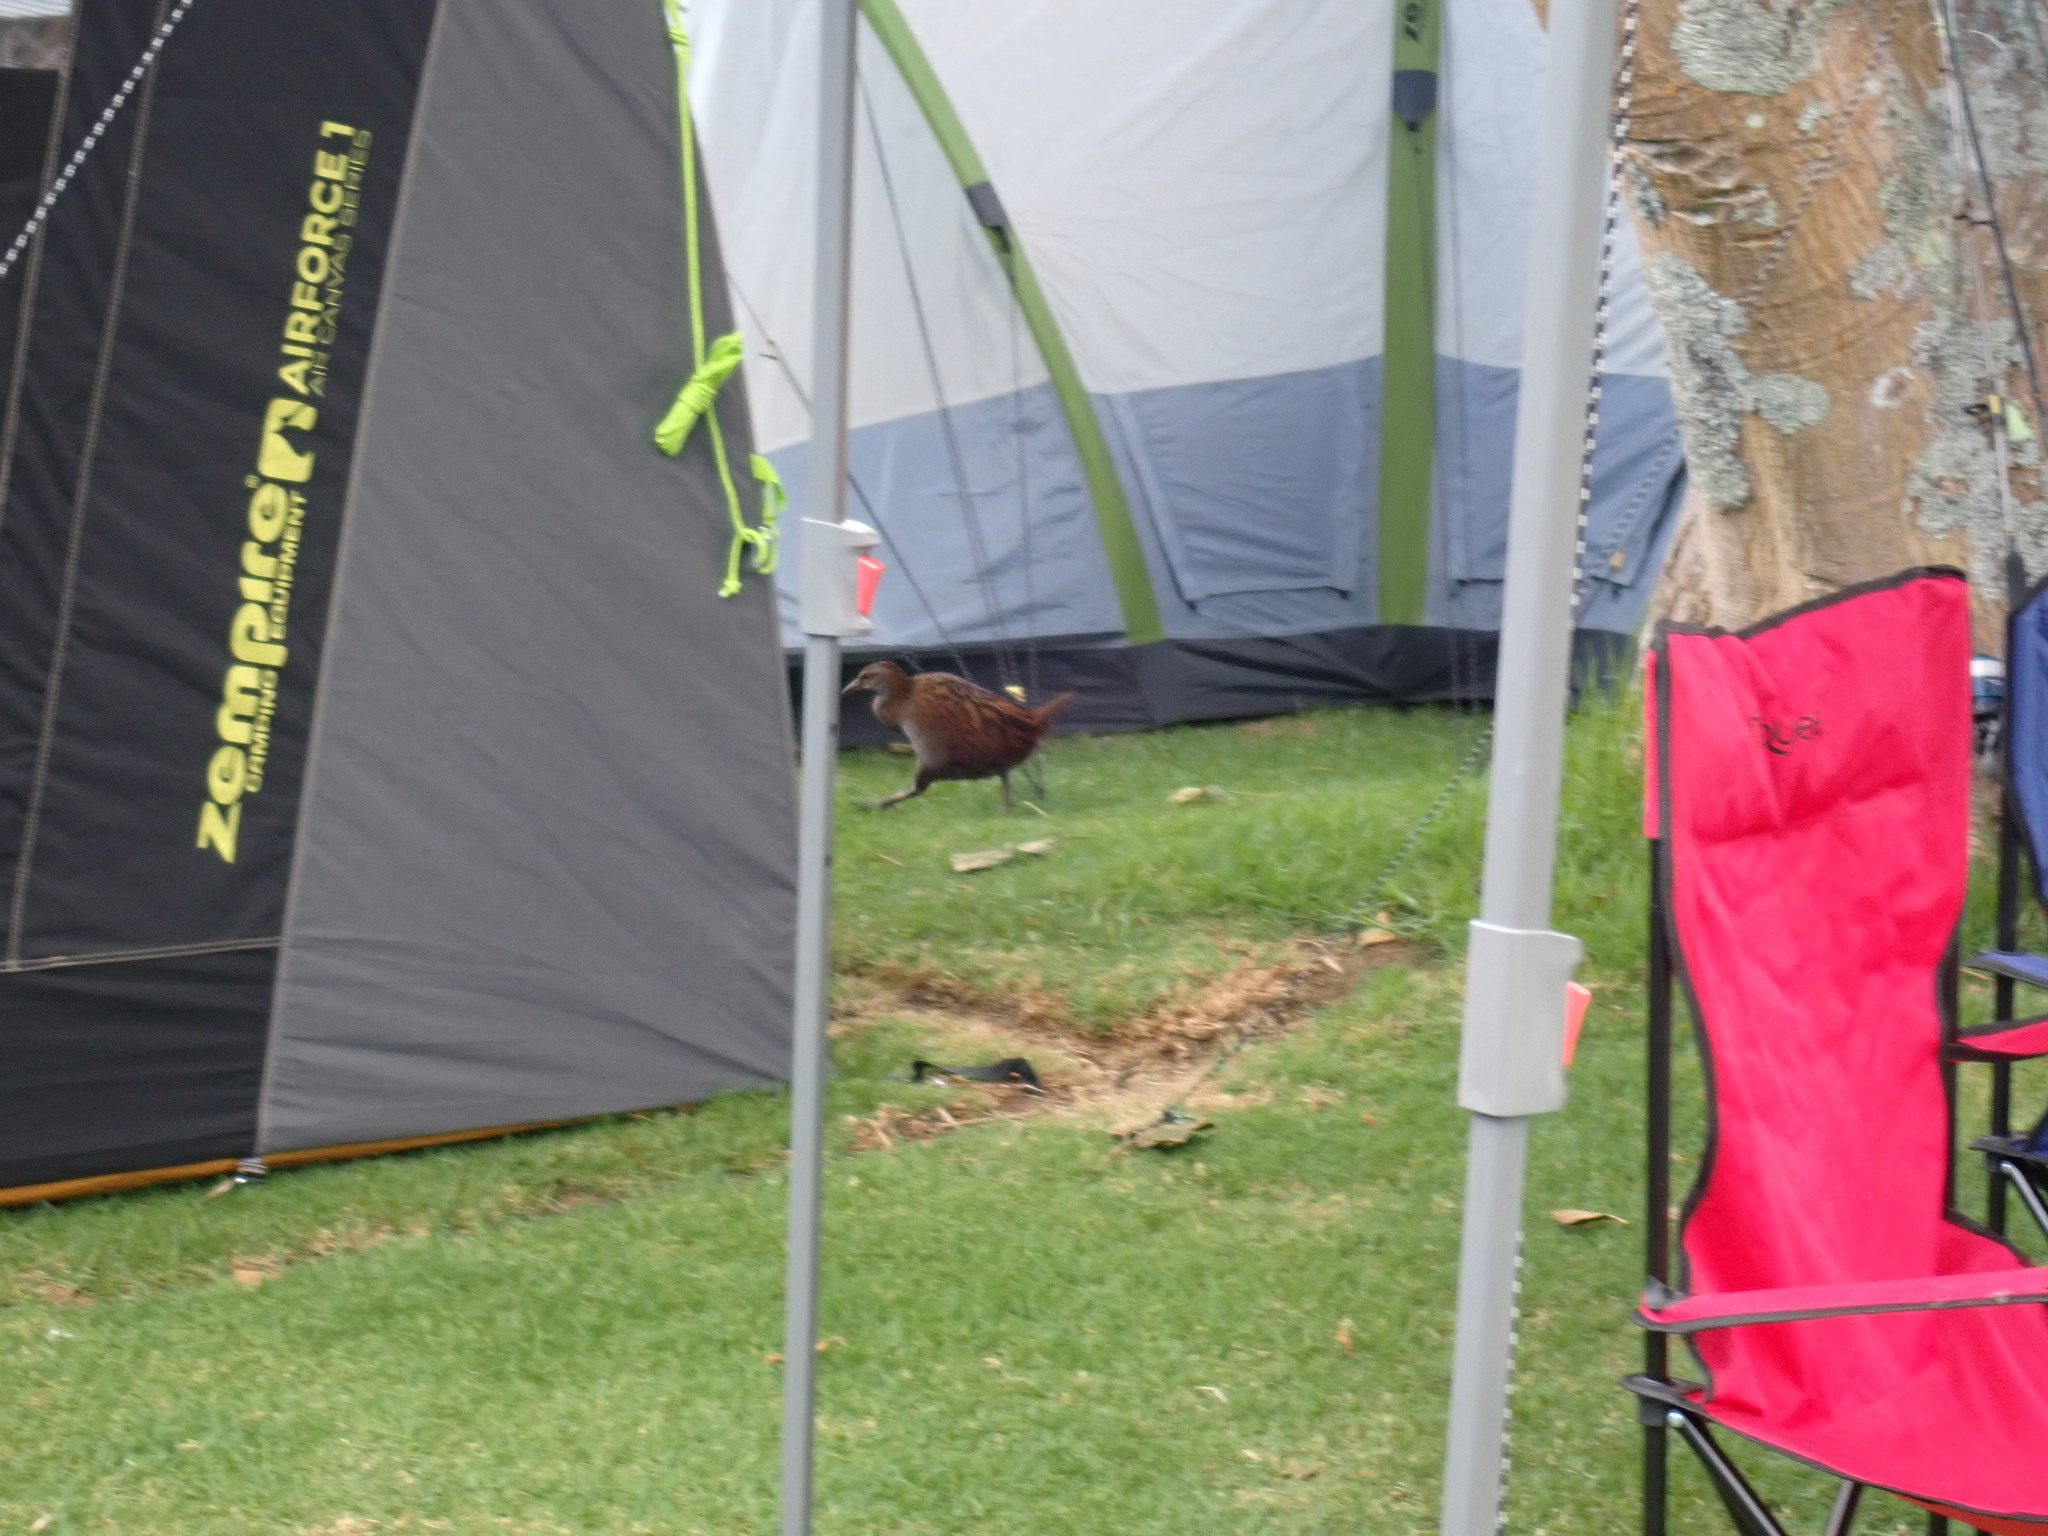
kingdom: Animalia
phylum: Chordata
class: Aves
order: Gruiformes
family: Rallidae
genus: Gallirallus
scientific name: Gallirallus australis
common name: Weka
